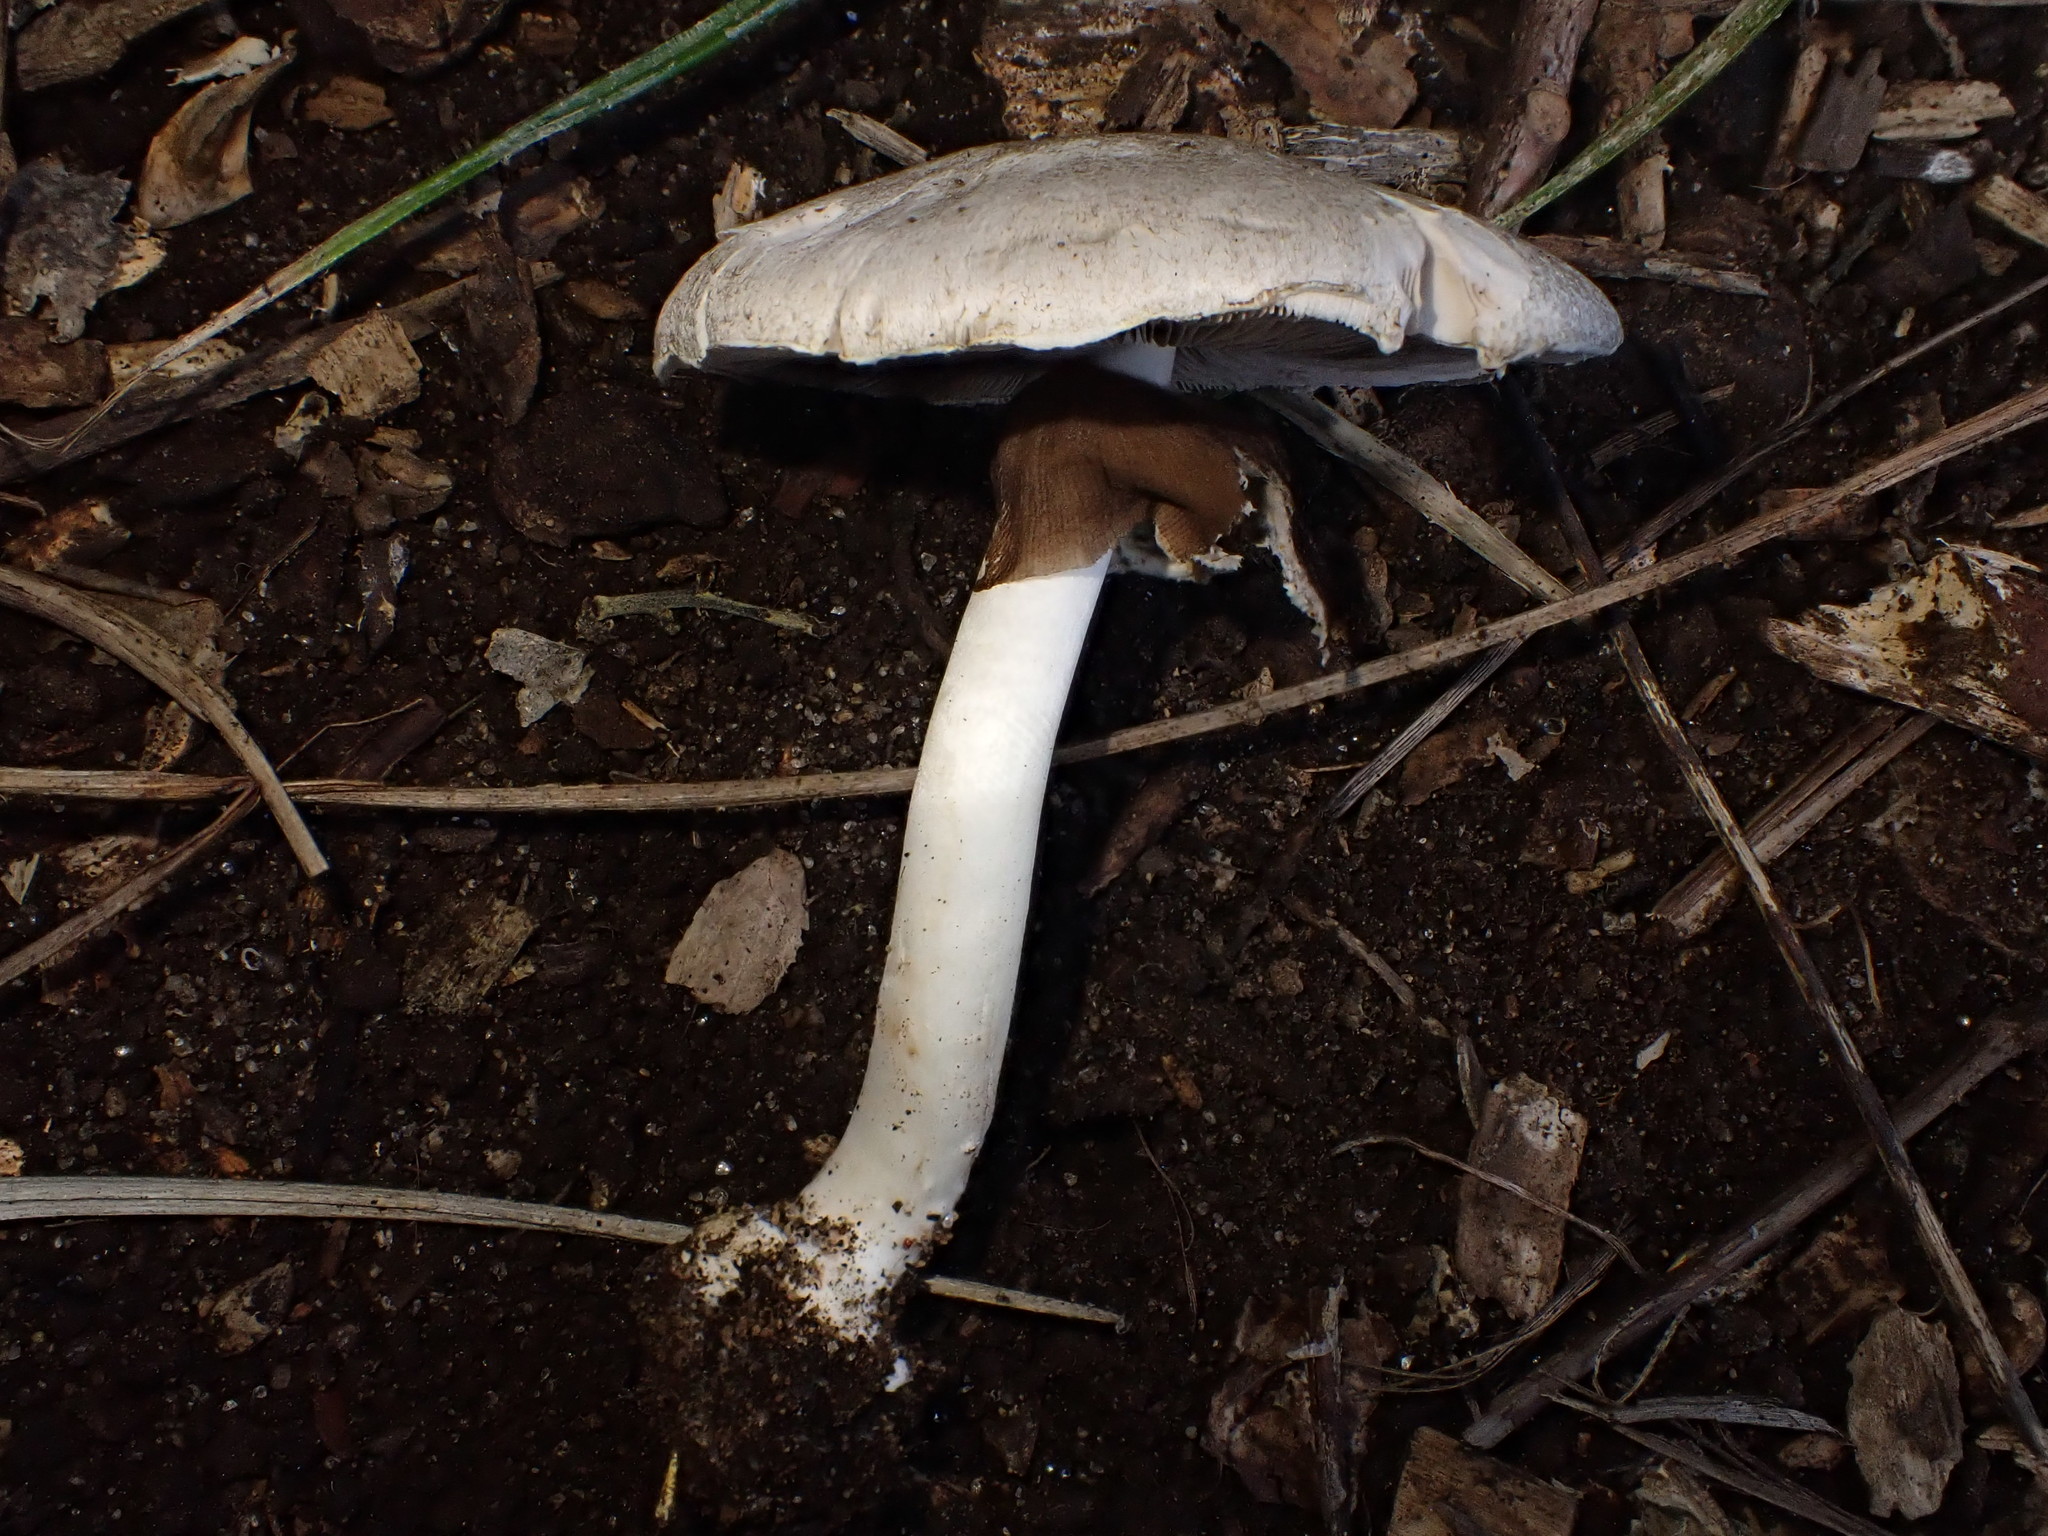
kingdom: Fungi
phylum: Basidiomycota
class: Agaricomycetes
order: Agaricales
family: Agaricaceae
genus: Agaricus
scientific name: Agaricus
